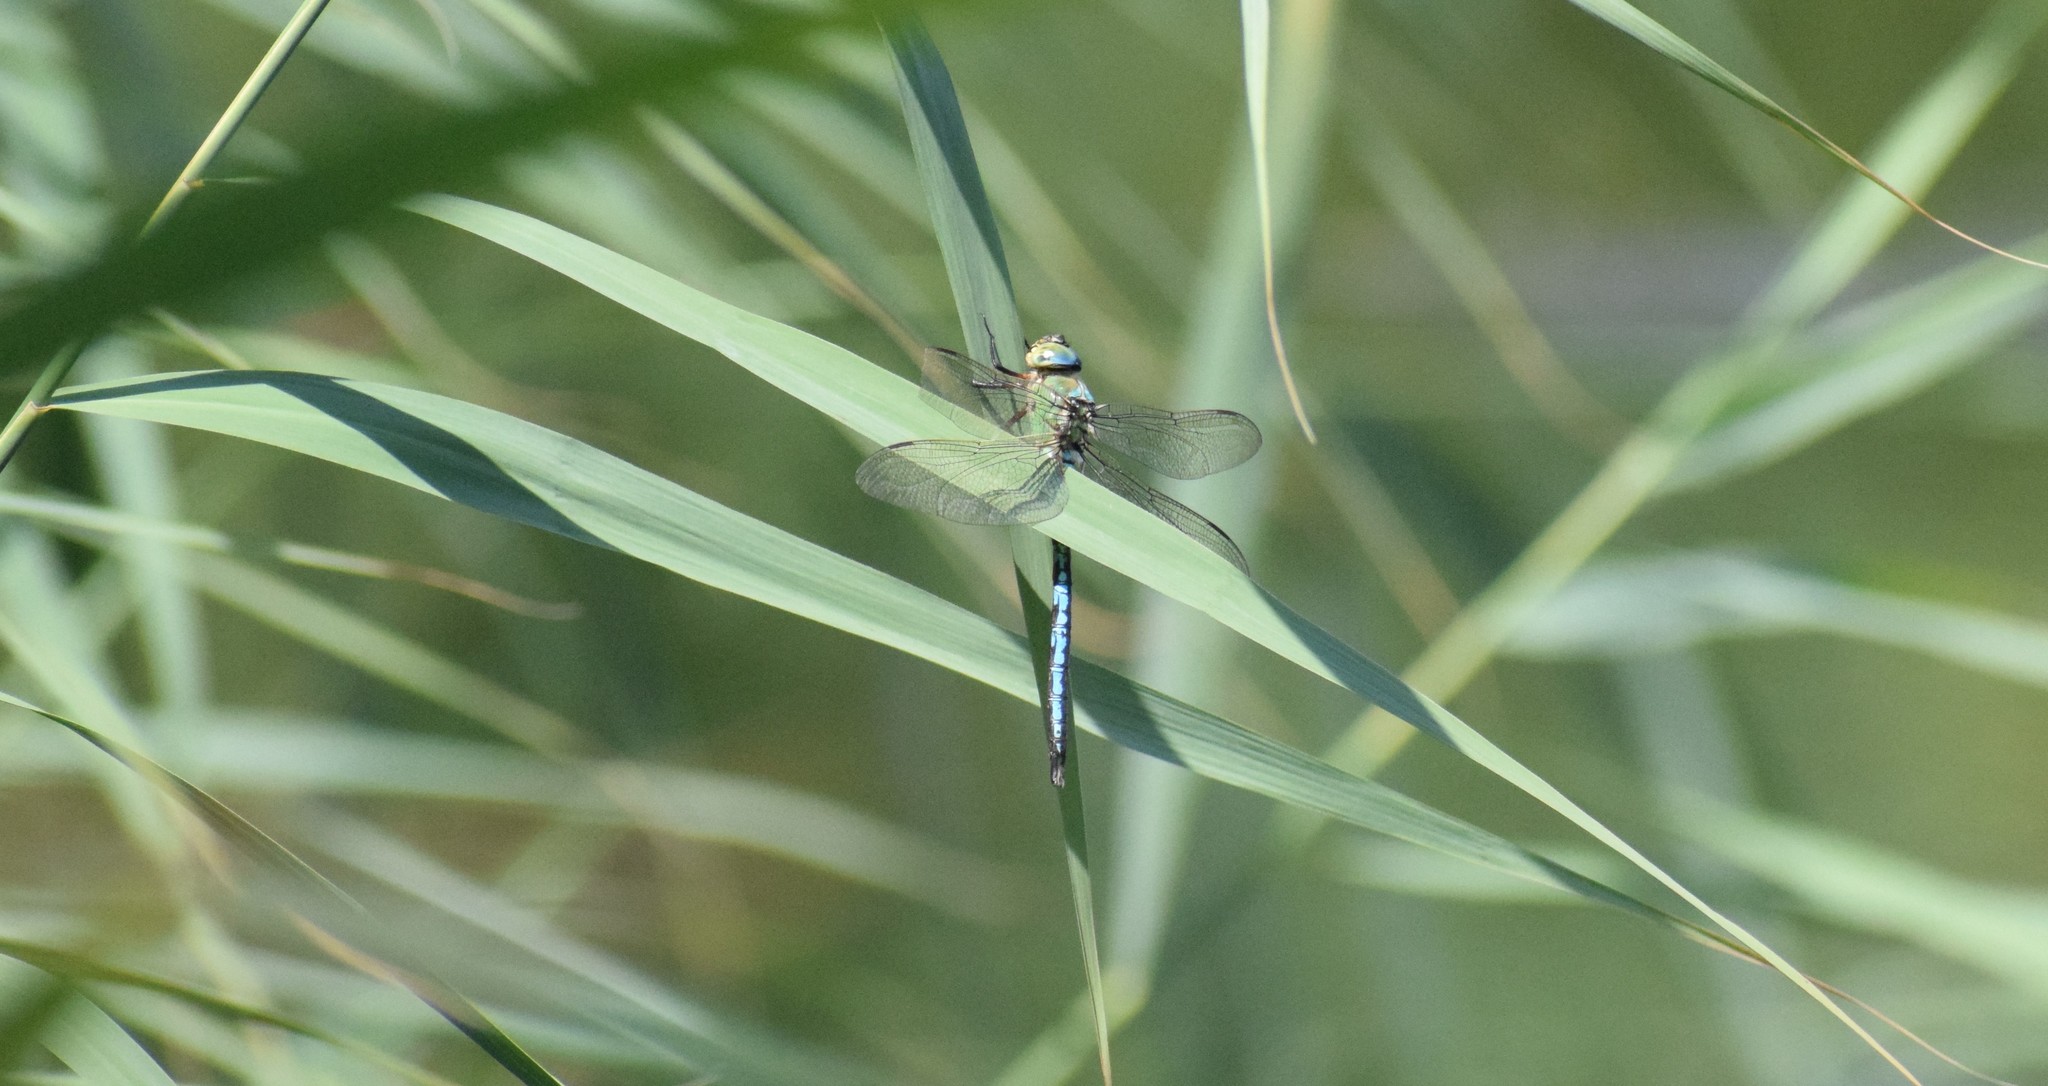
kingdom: Animalia
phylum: Arthropoda
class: Insecta
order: Odonata
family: Aeshnidae
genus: Anax
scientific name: Anax imperator
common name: Emperor dragonfly
